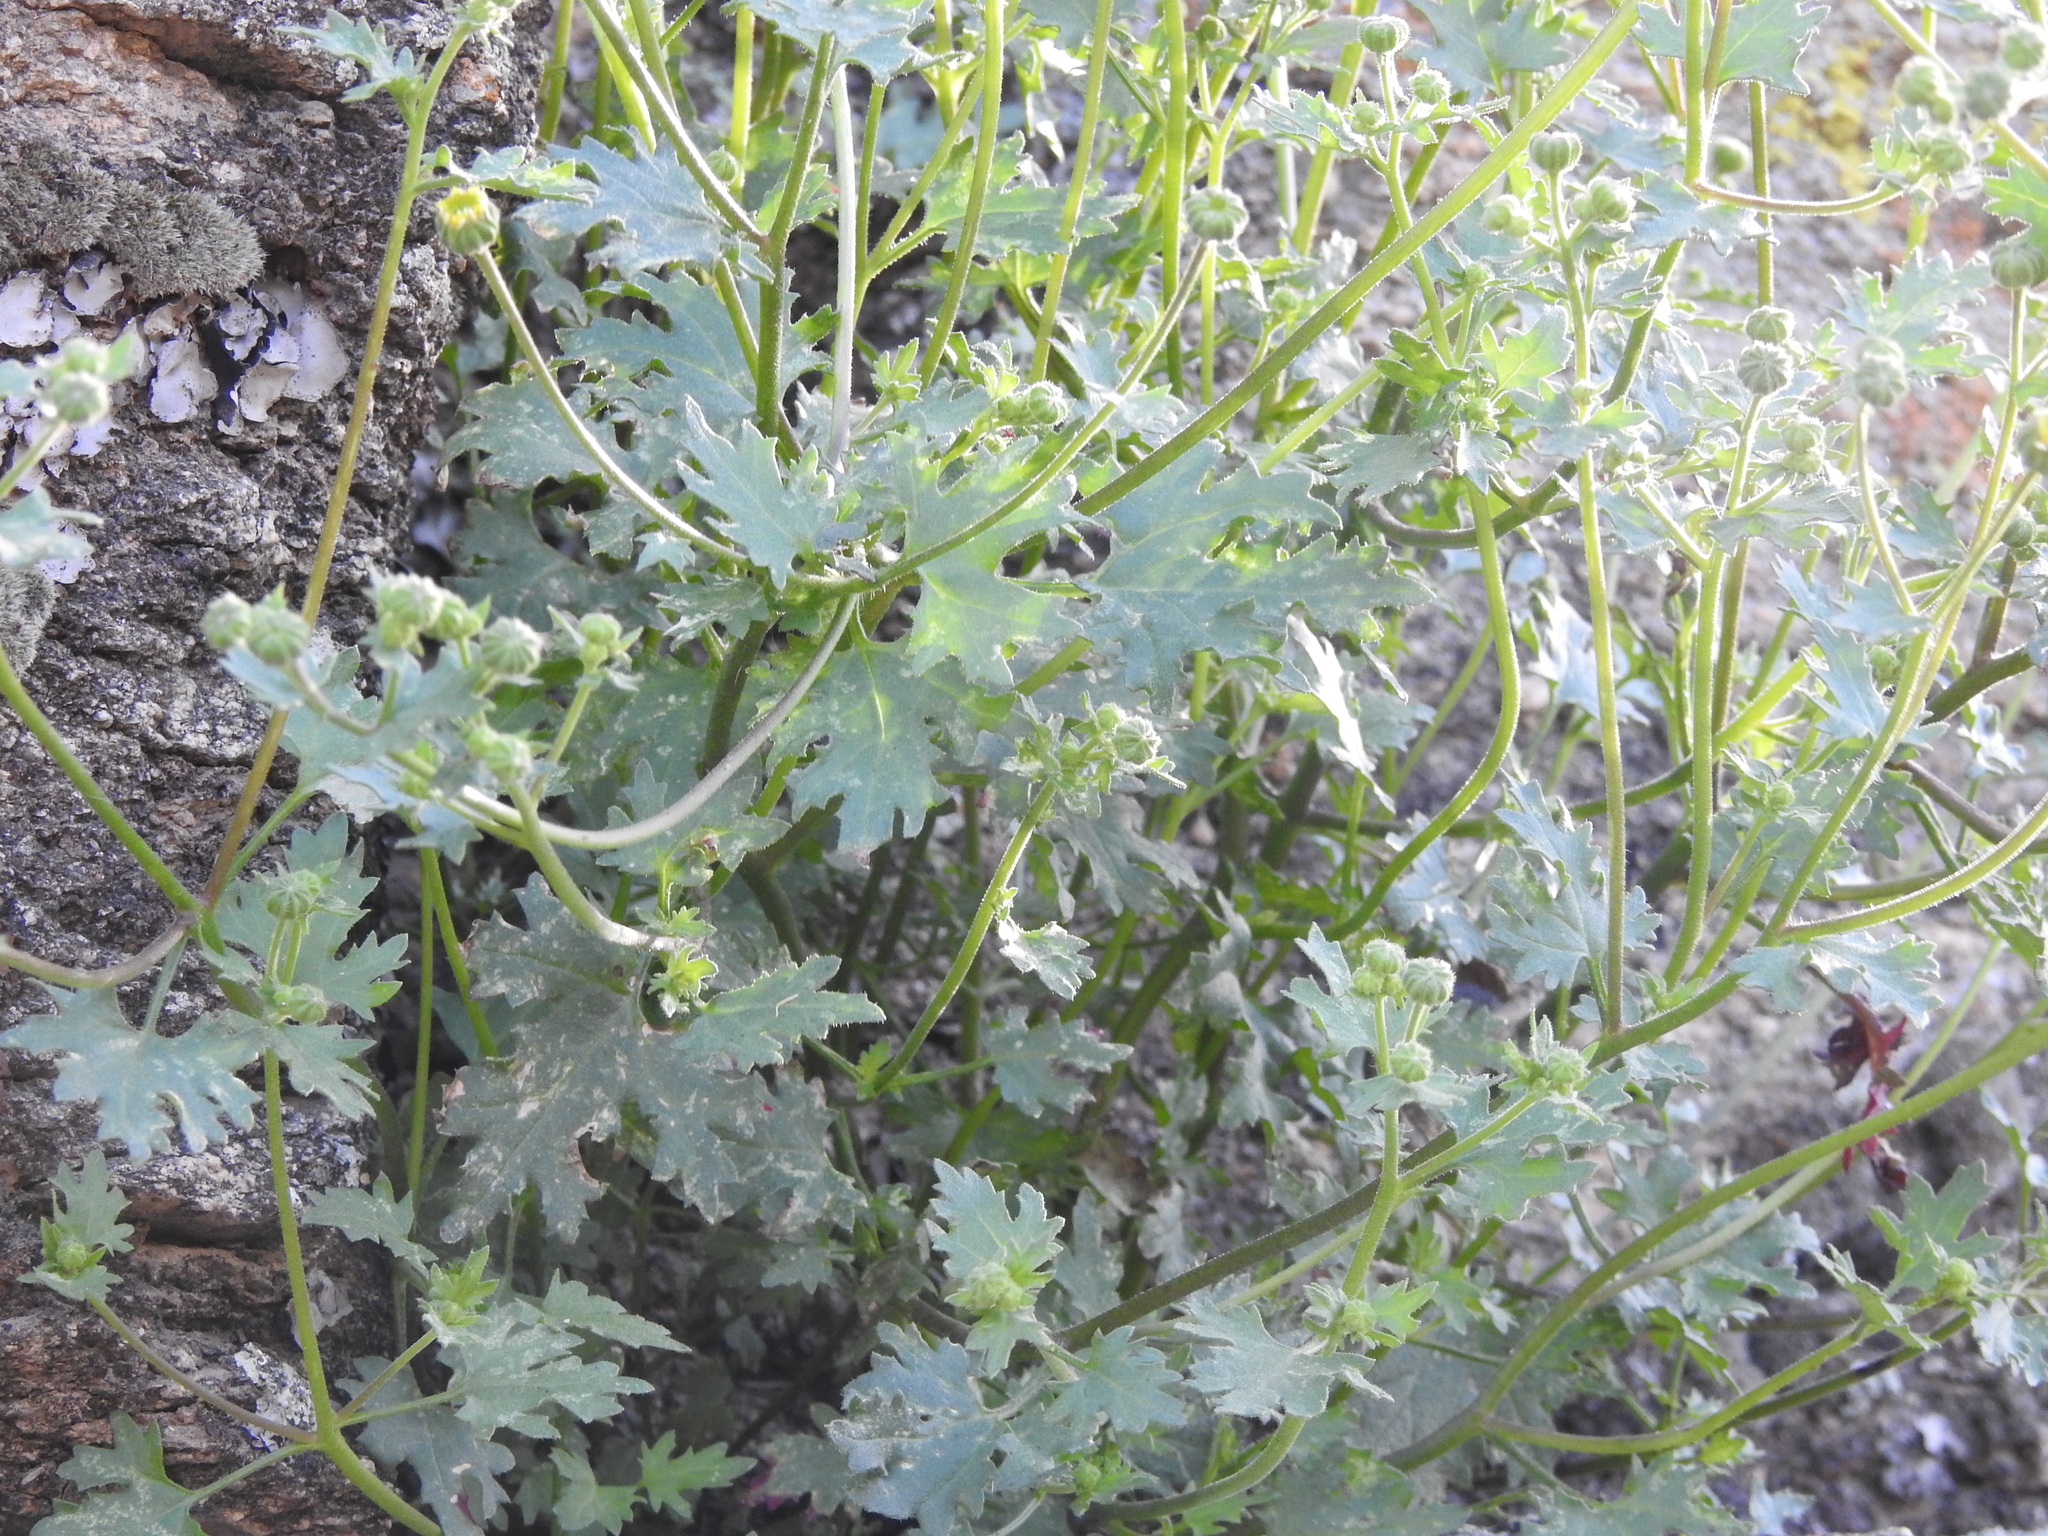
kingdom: Plantae
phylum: Tracheophyta
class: Magnoliopsida
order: Asterales
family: Asteraceae
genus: Laphamia
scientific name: Laphamia emoryi
